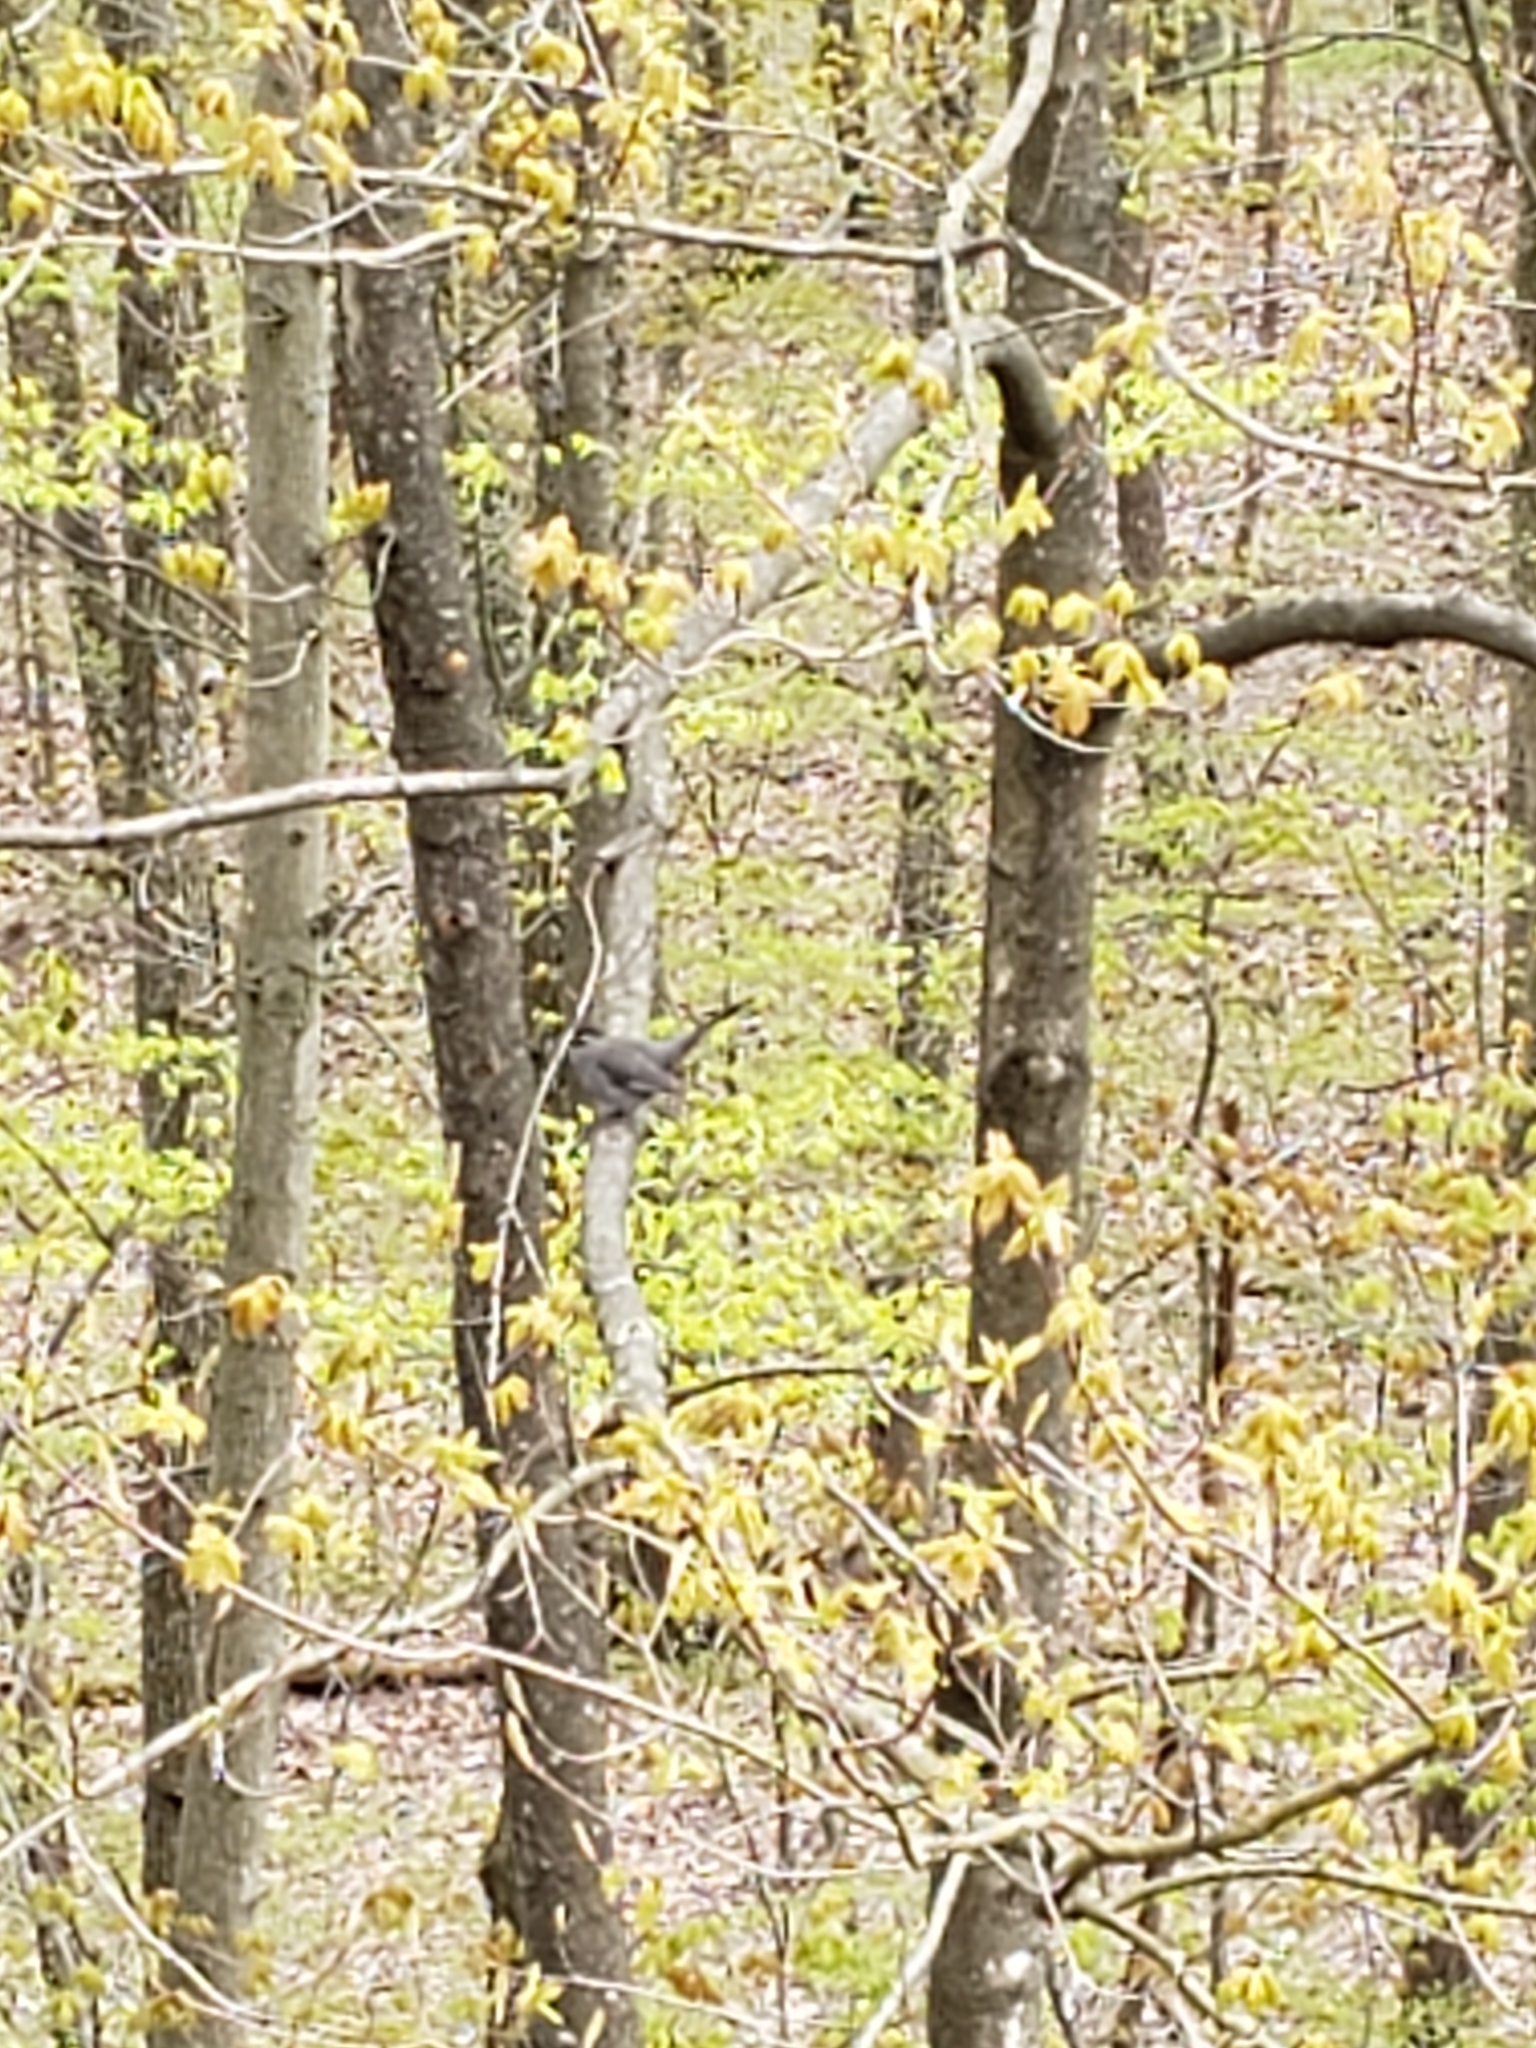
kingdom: Animalia
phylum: Chordata
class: Aves
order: Passeriformes
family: Mimidae
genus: Dumetella
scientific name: Dumetella carolinensis
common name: Gray catbird
